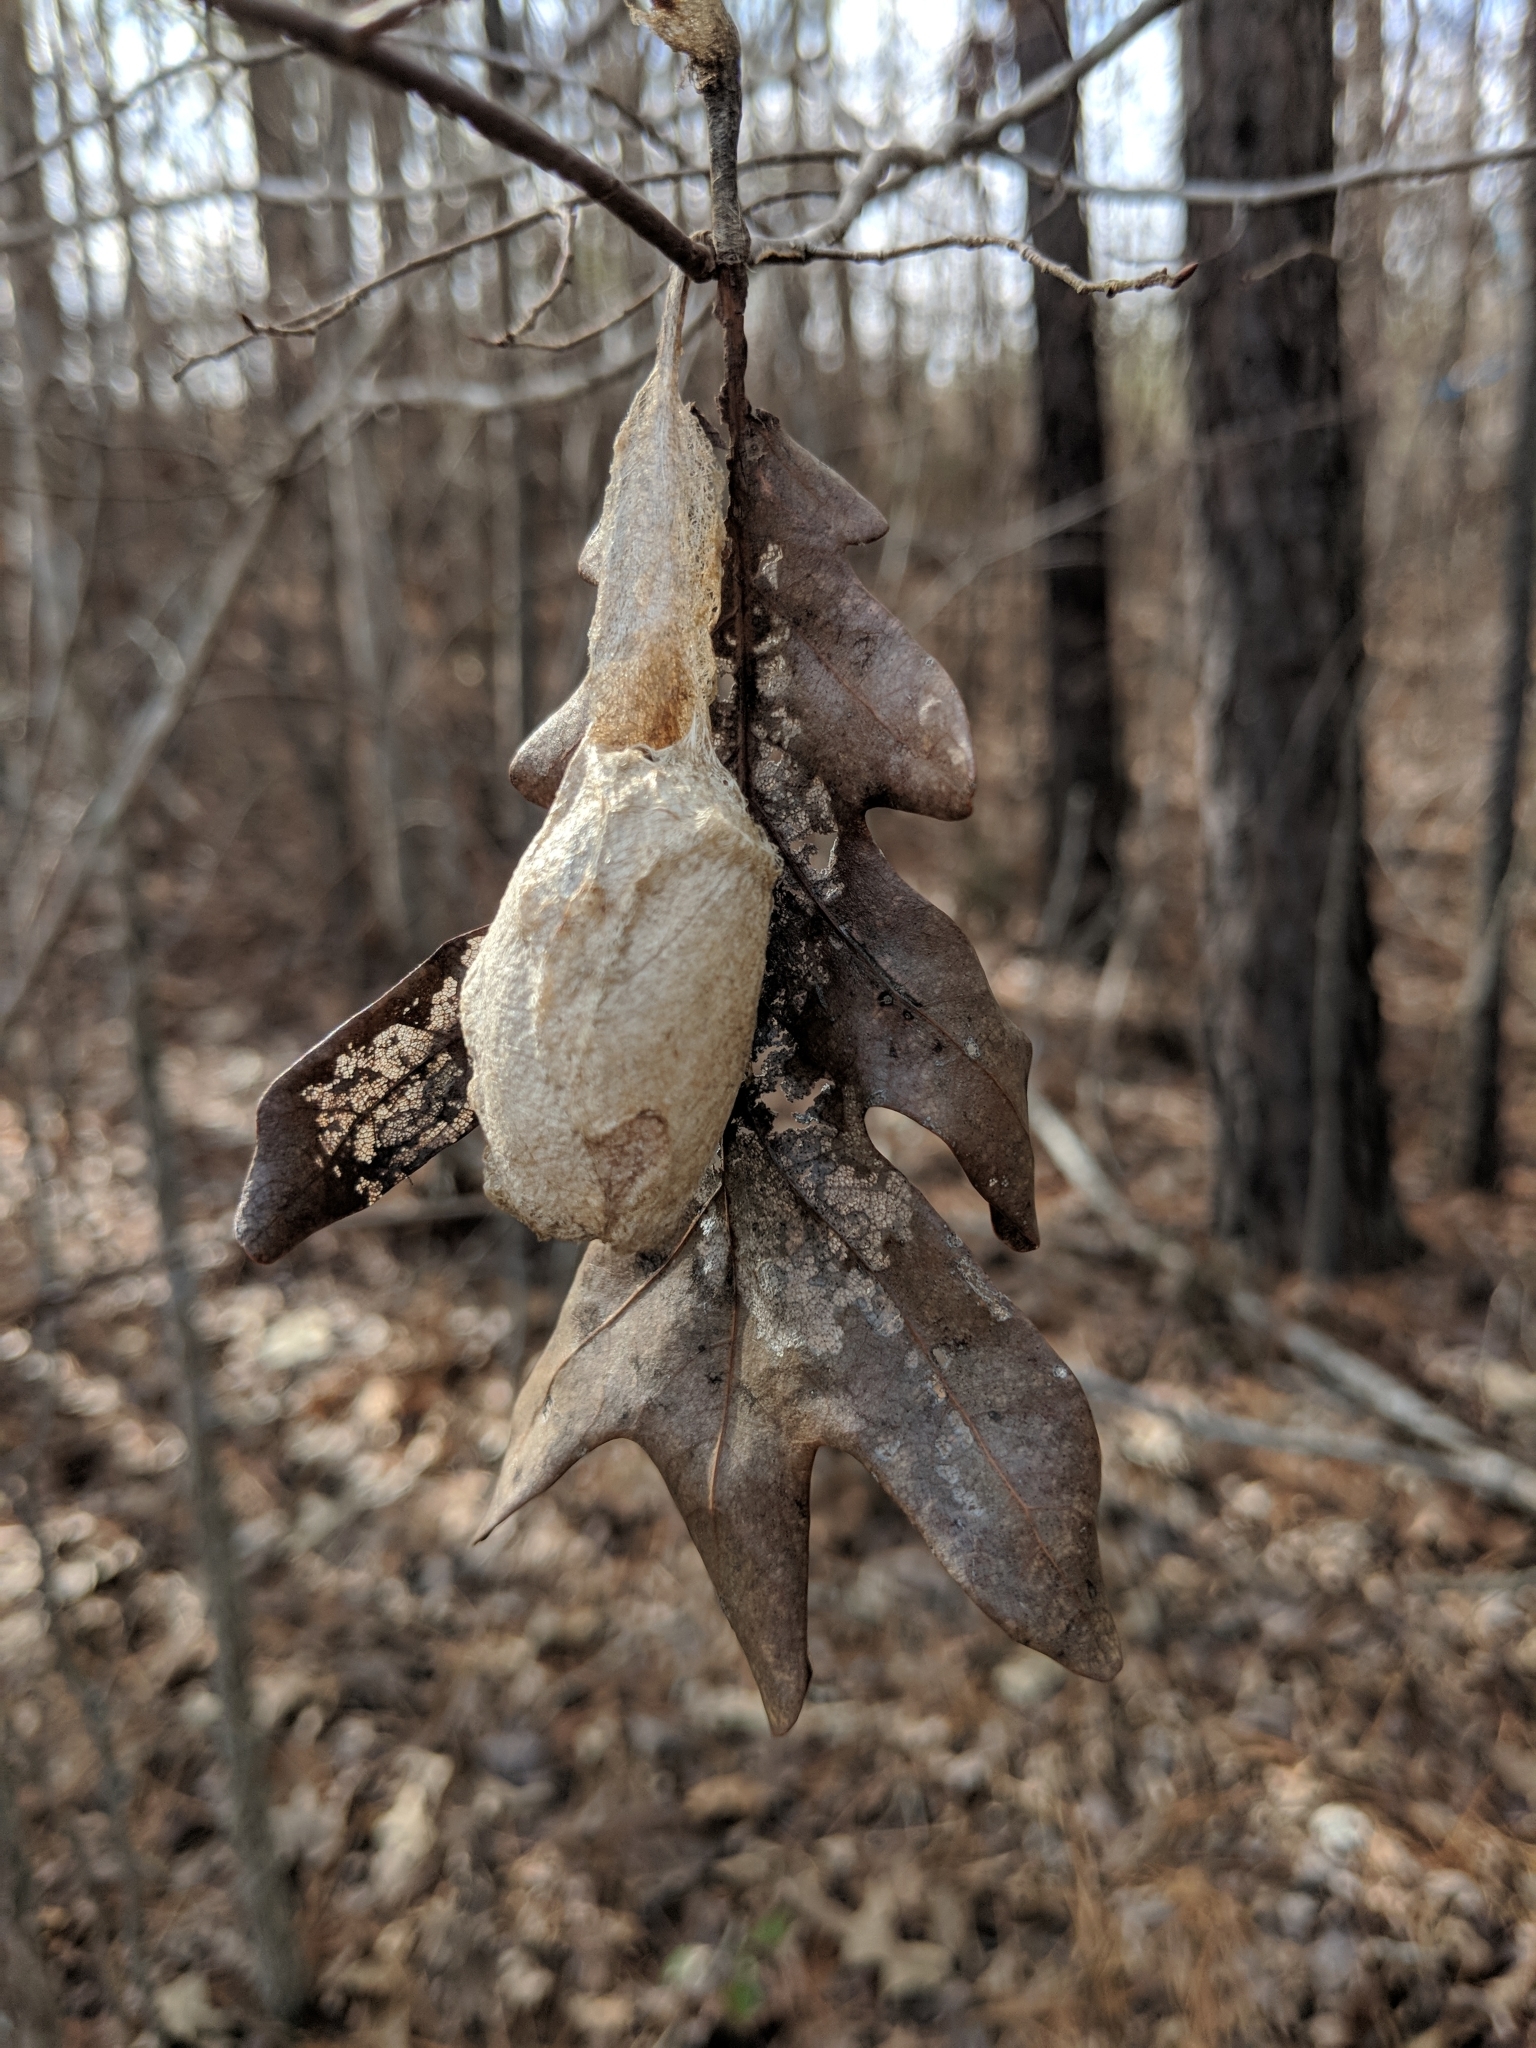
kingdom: Animalia
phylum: Arthropoda
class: Insecta
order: Lepidoptera
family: Saturniidae
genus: Antheraea
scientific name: Antheraea polyphemus
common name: Polyphemus moth
